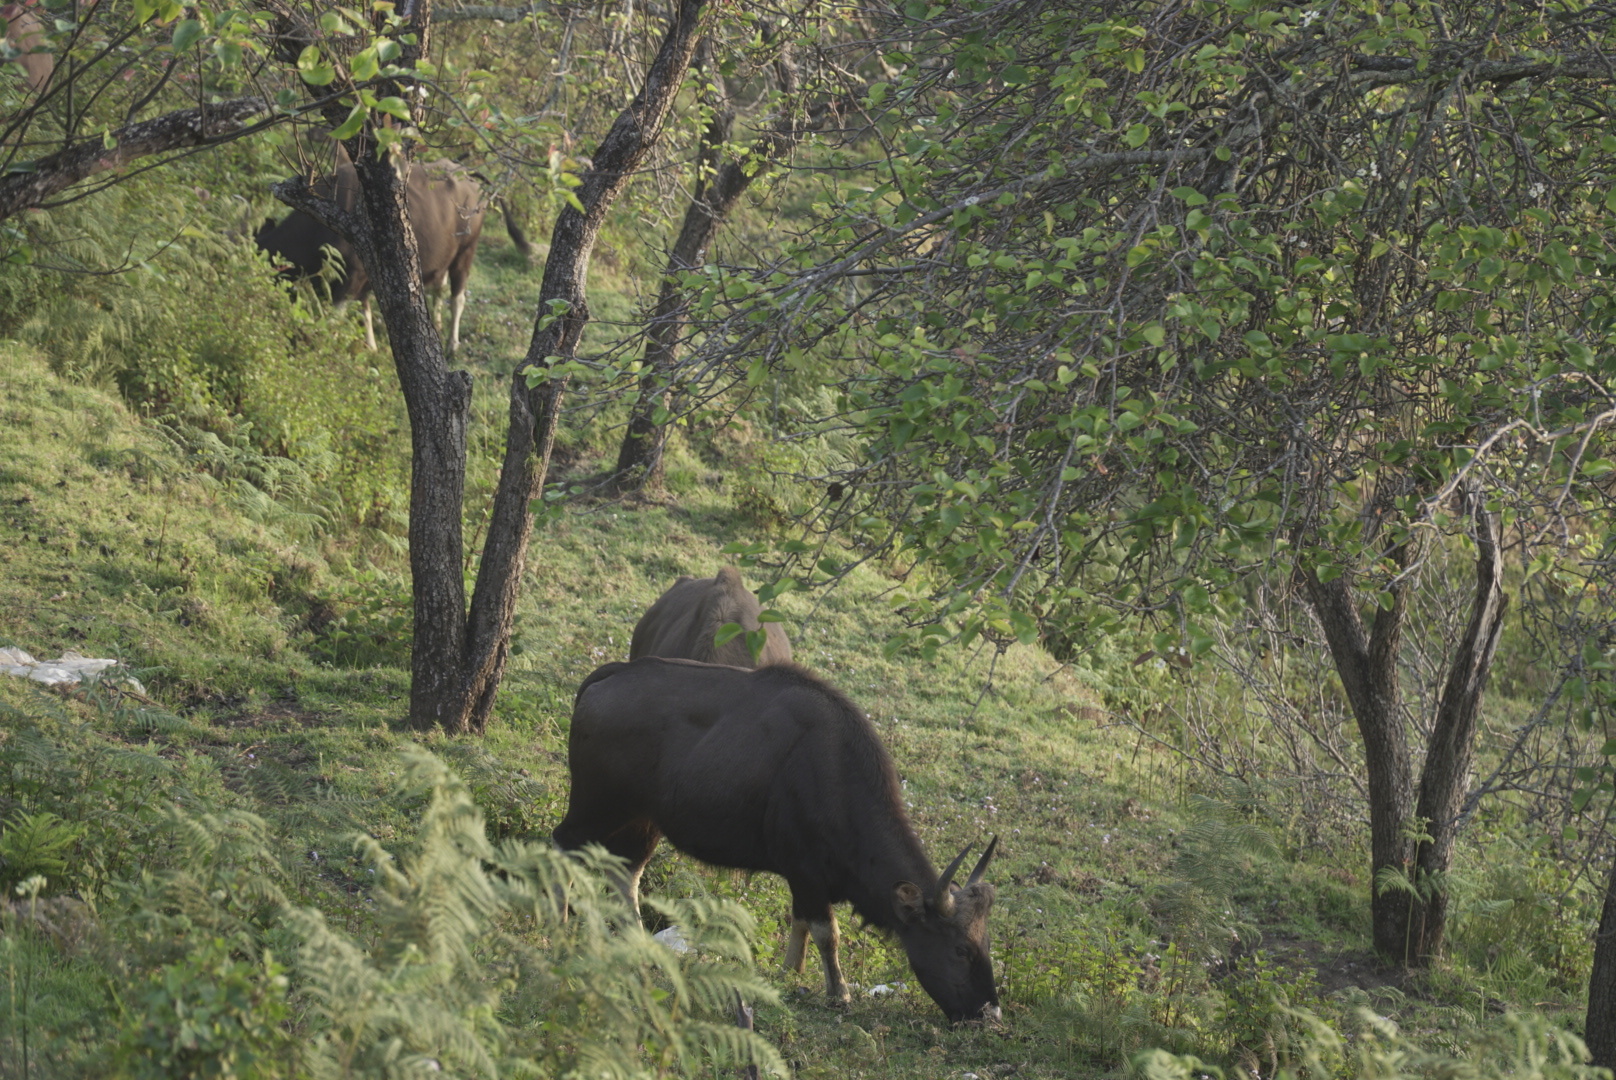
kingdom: Animalia
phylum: Chordata
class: Mammalia
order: Artiodactyla
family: Bovidae
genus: Bos
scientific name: Bos frontalis
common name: Gaur
